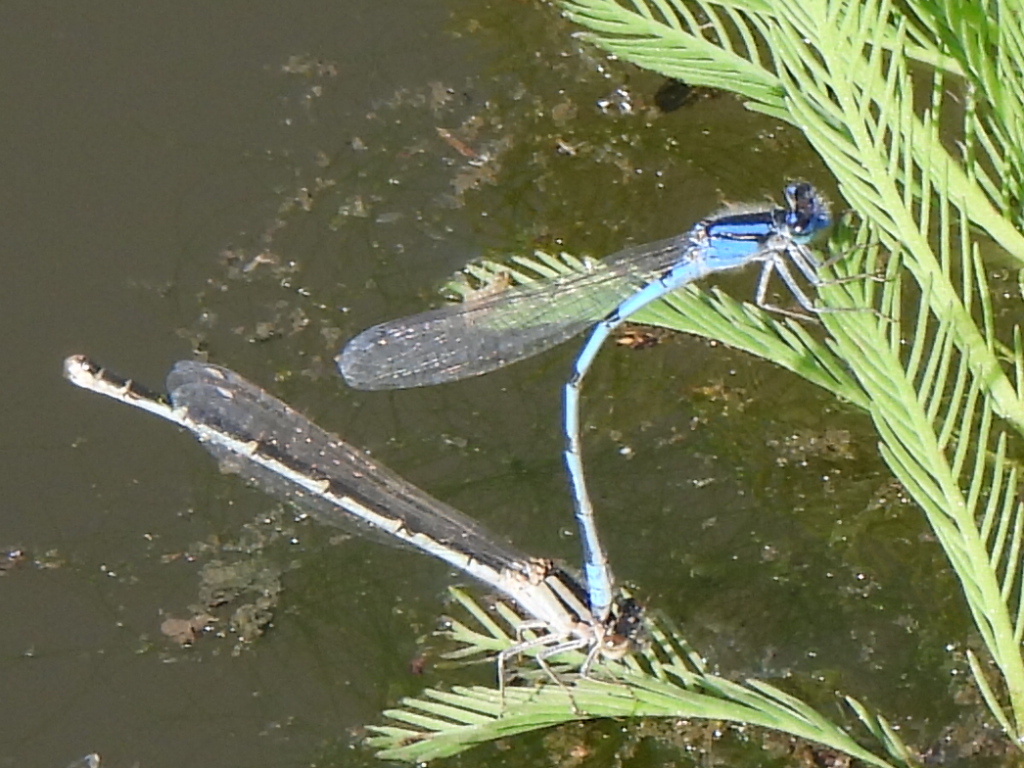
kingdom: Animalia
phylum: Arthropoda
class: Insecta
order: Odonata
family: Coenagrionidae
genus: Enallagma
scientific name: Enallagma civile
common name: Damselfly
